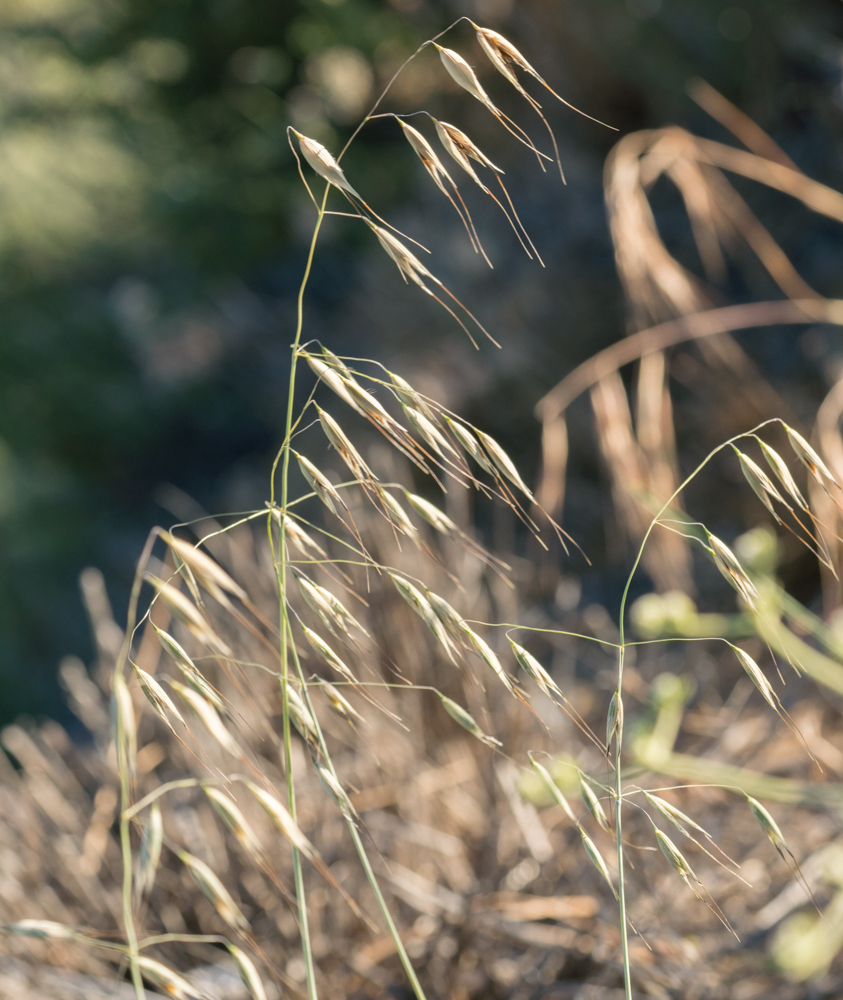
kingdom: Plantae
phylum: Tracheophyta
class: Liliopsida
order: Poales
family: Poaceae
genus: Avena
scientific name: Avena fatua
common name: Wild oat
